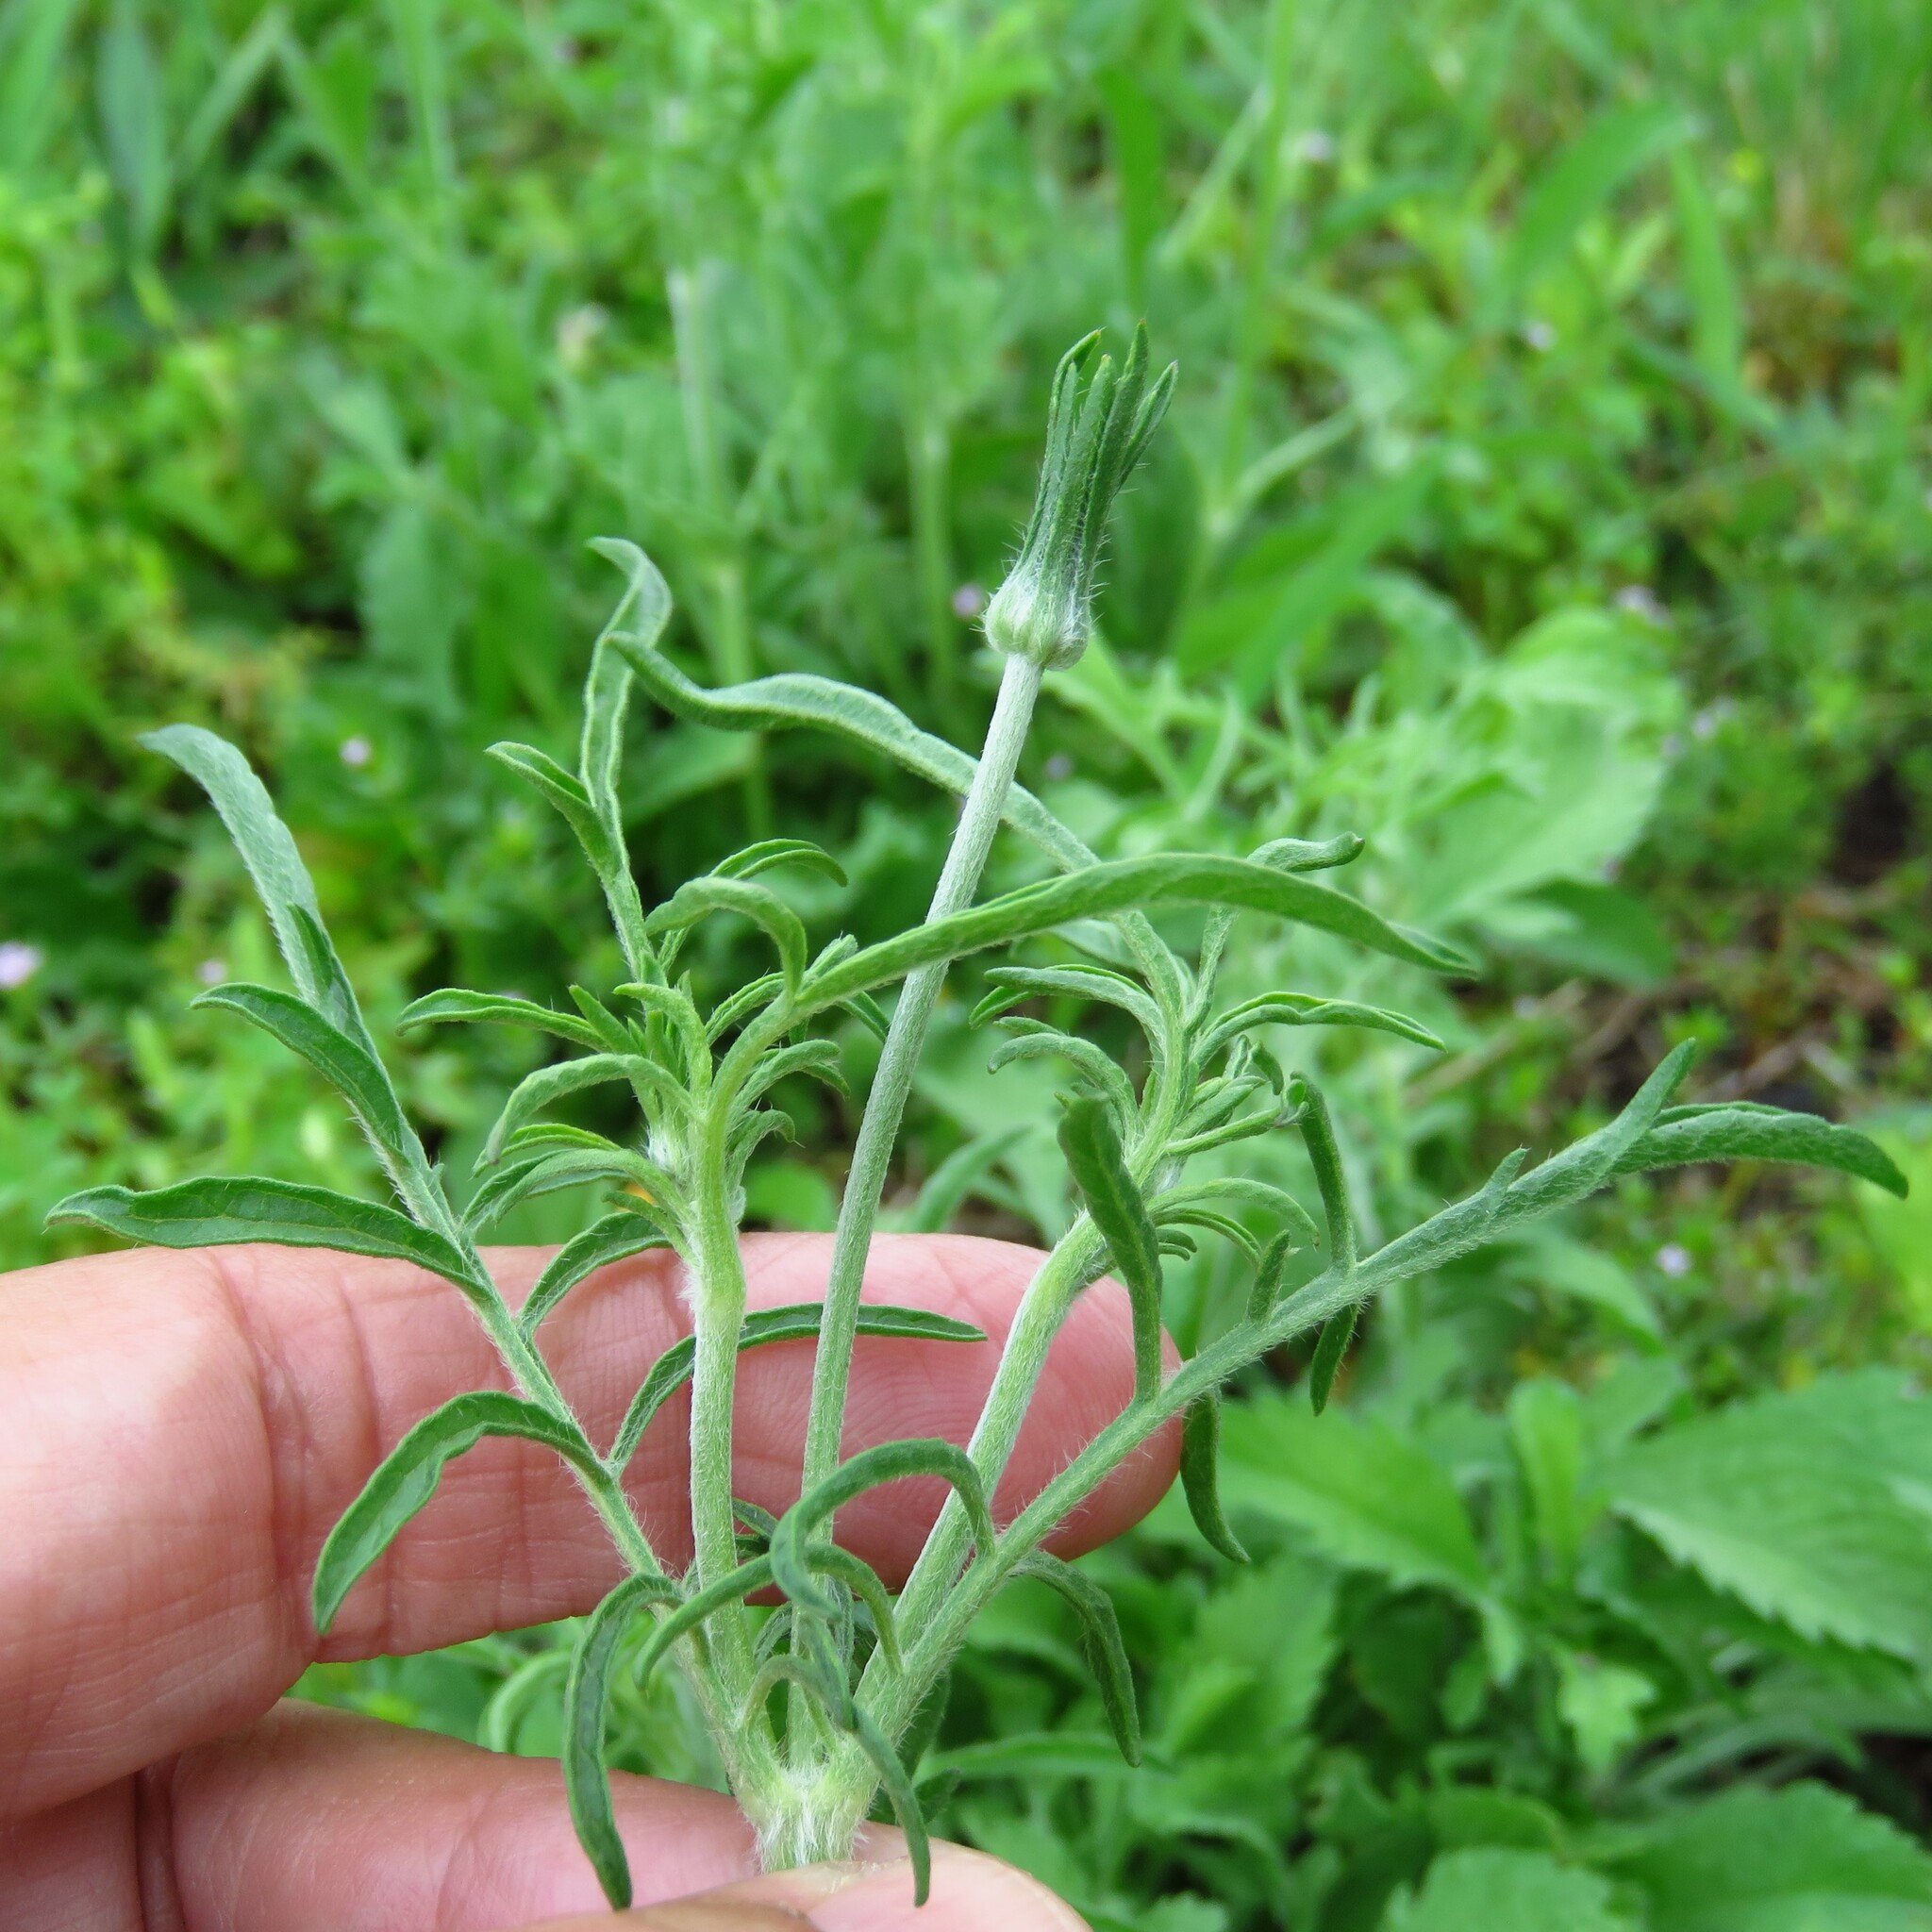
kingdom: Plantae
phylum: Tracheophyta
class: Magnoliopsida
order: Dipsacales
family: Caprifoliaceae
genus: Sixalix
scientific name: Sixalix atropurpurea
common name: Sweet scabious
